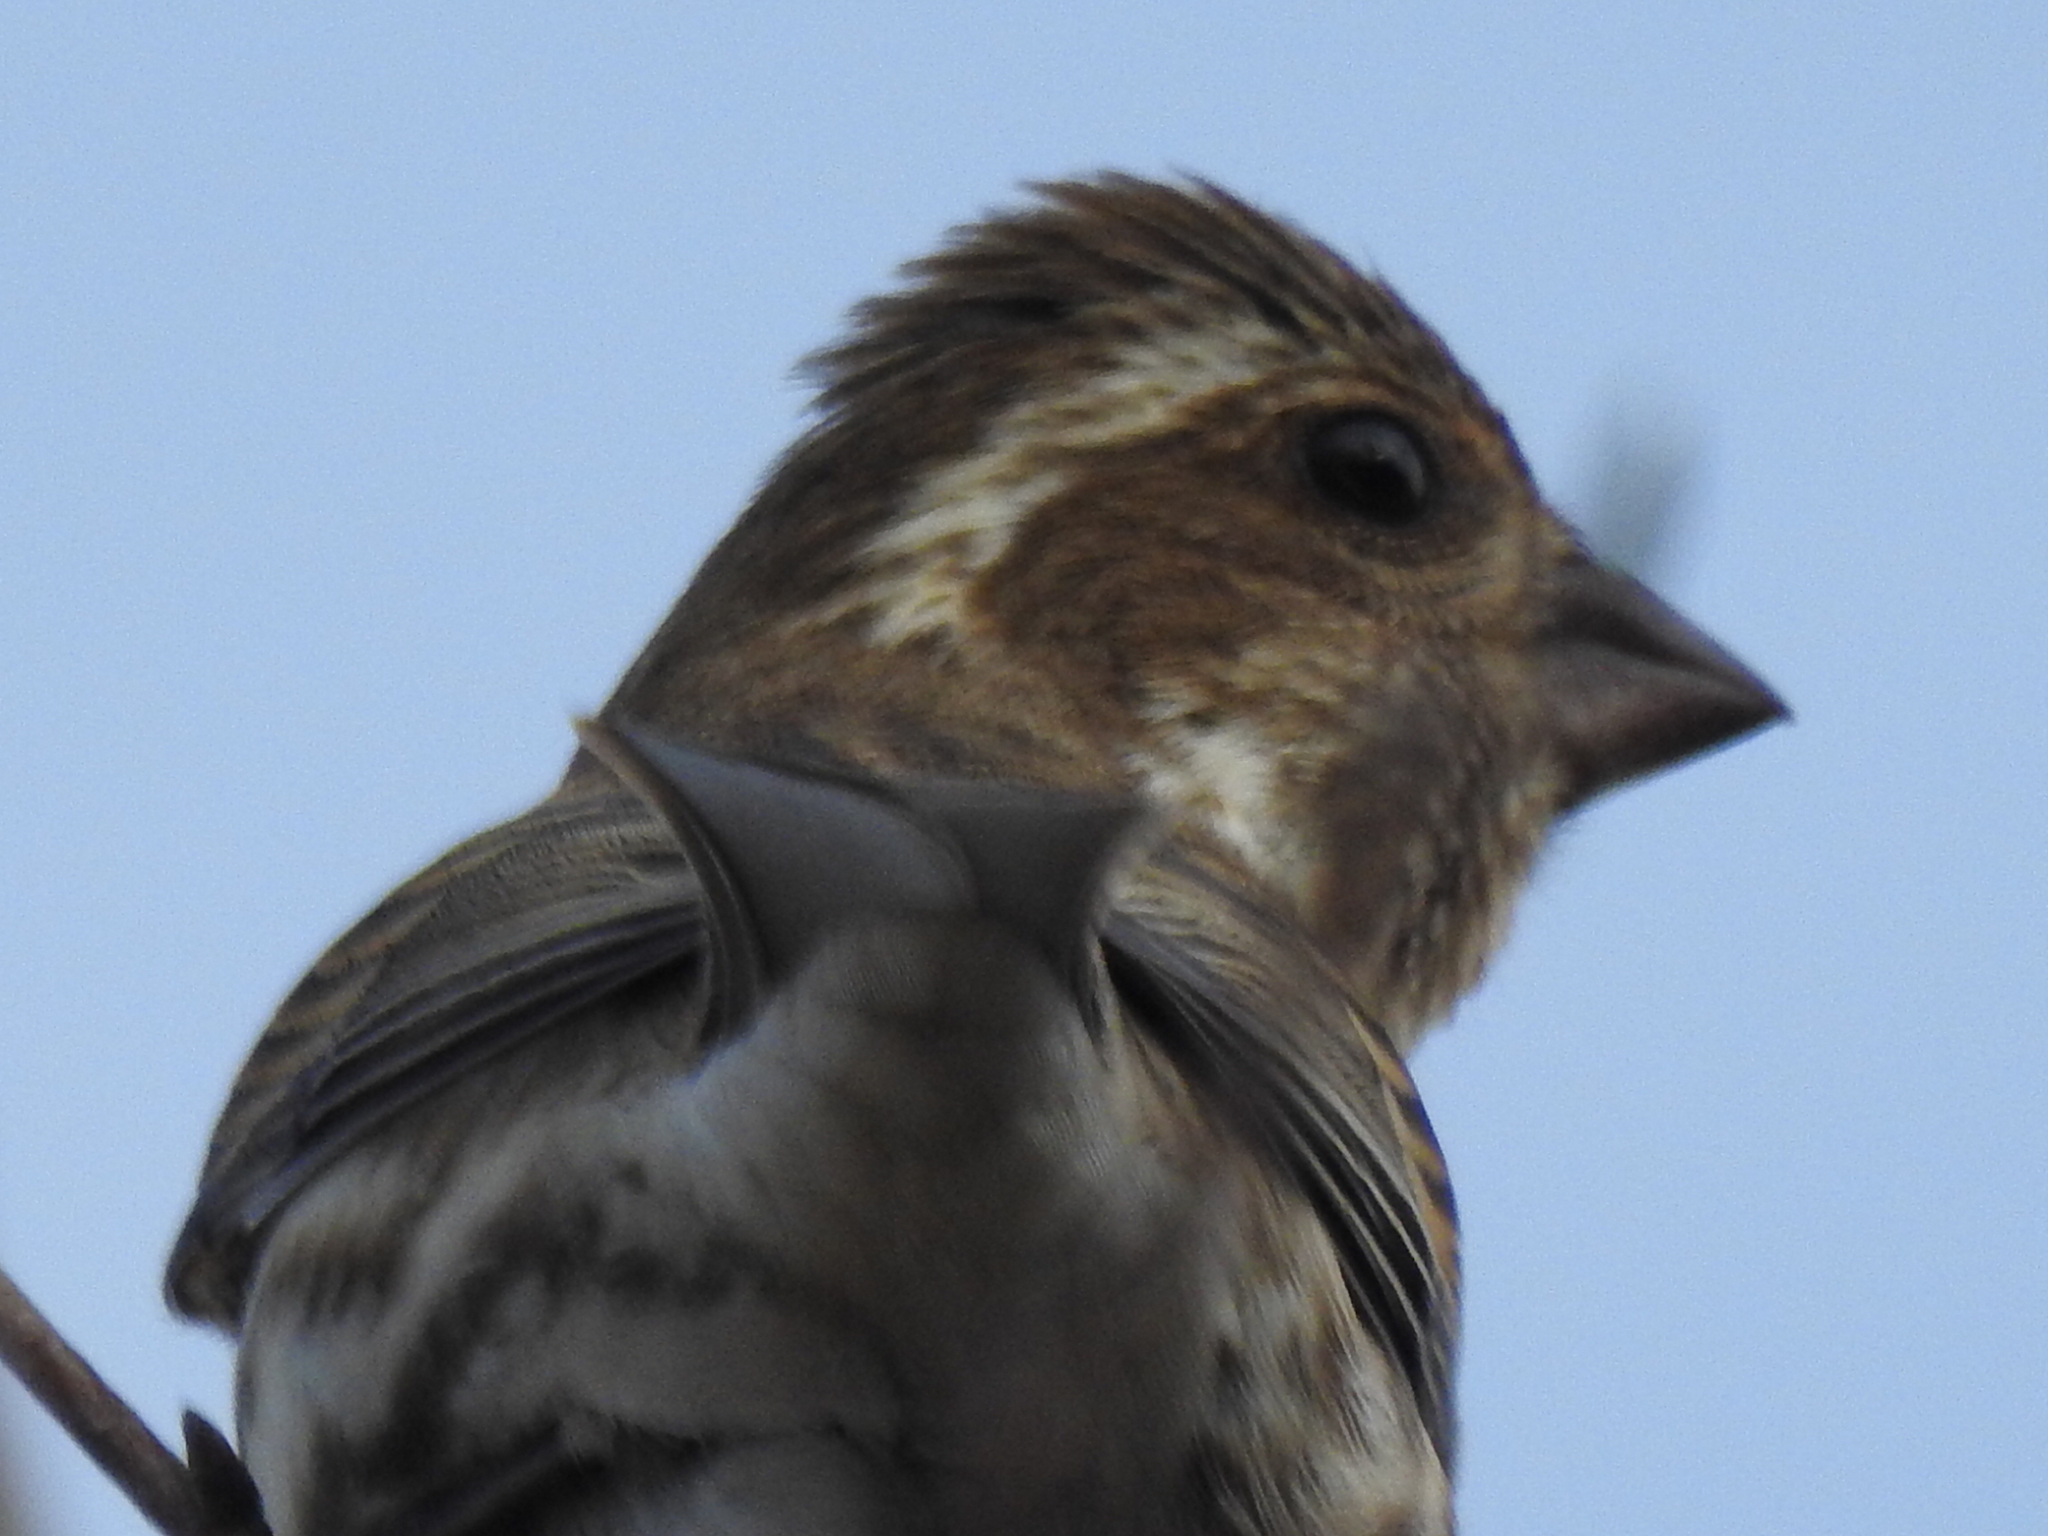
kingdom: Animalia
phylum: Chordata
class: Aves
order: Passeriformes
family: Fringillidae
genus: Haemorhous
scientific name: Haemorhous purpureus
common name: Purple finch
